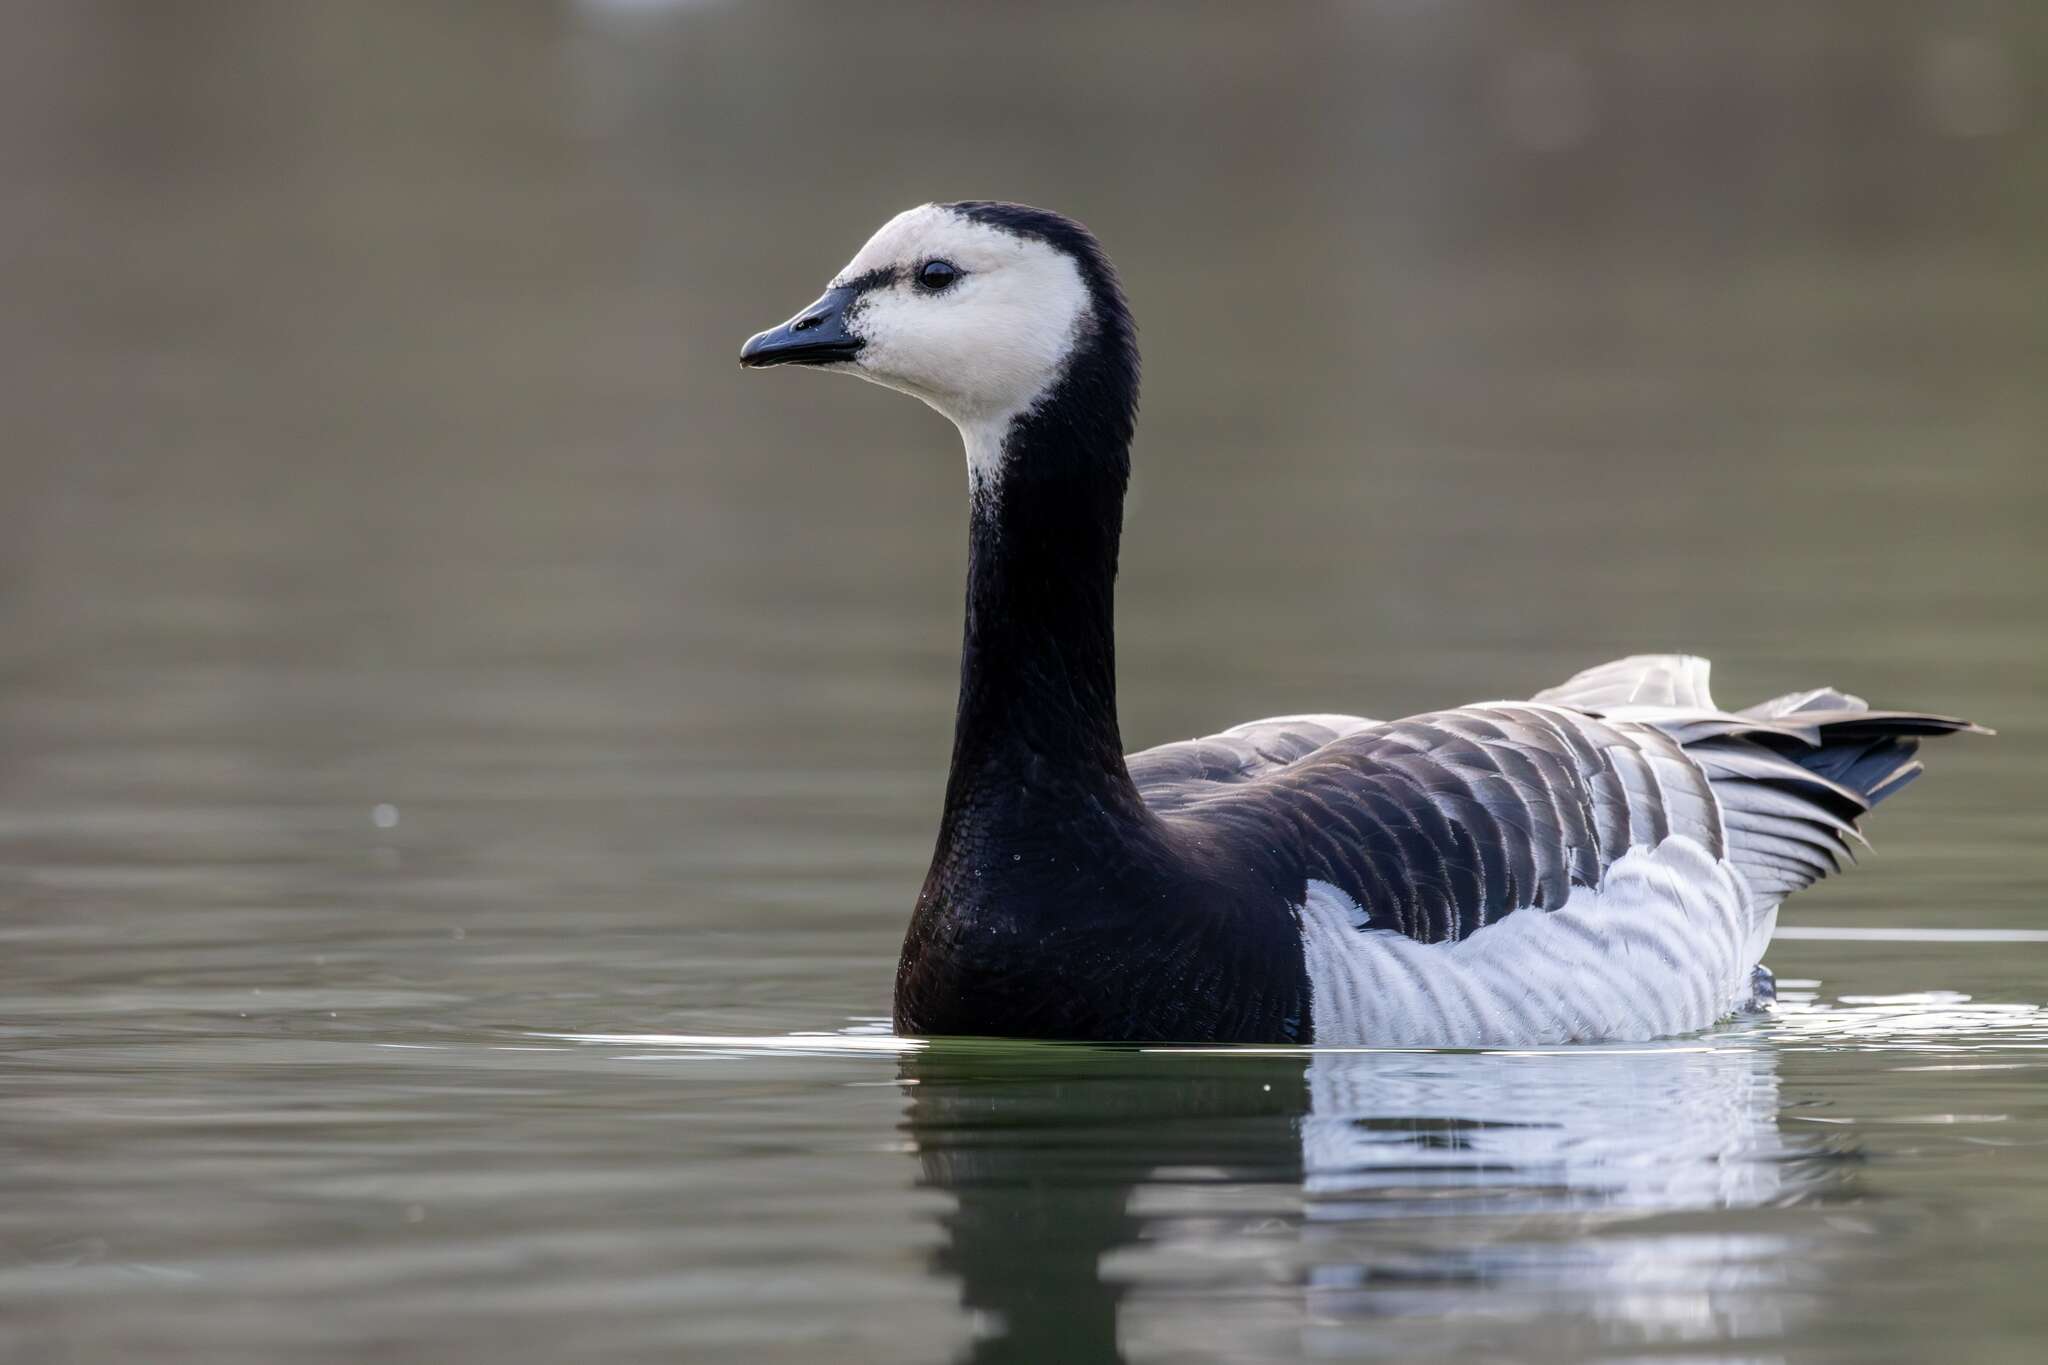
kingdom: Animalia
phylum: Chordata
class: Aves
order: Anseriformes
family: Anatidae
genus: Branta
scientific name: Branta leucopsis
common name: Barnacle goose
